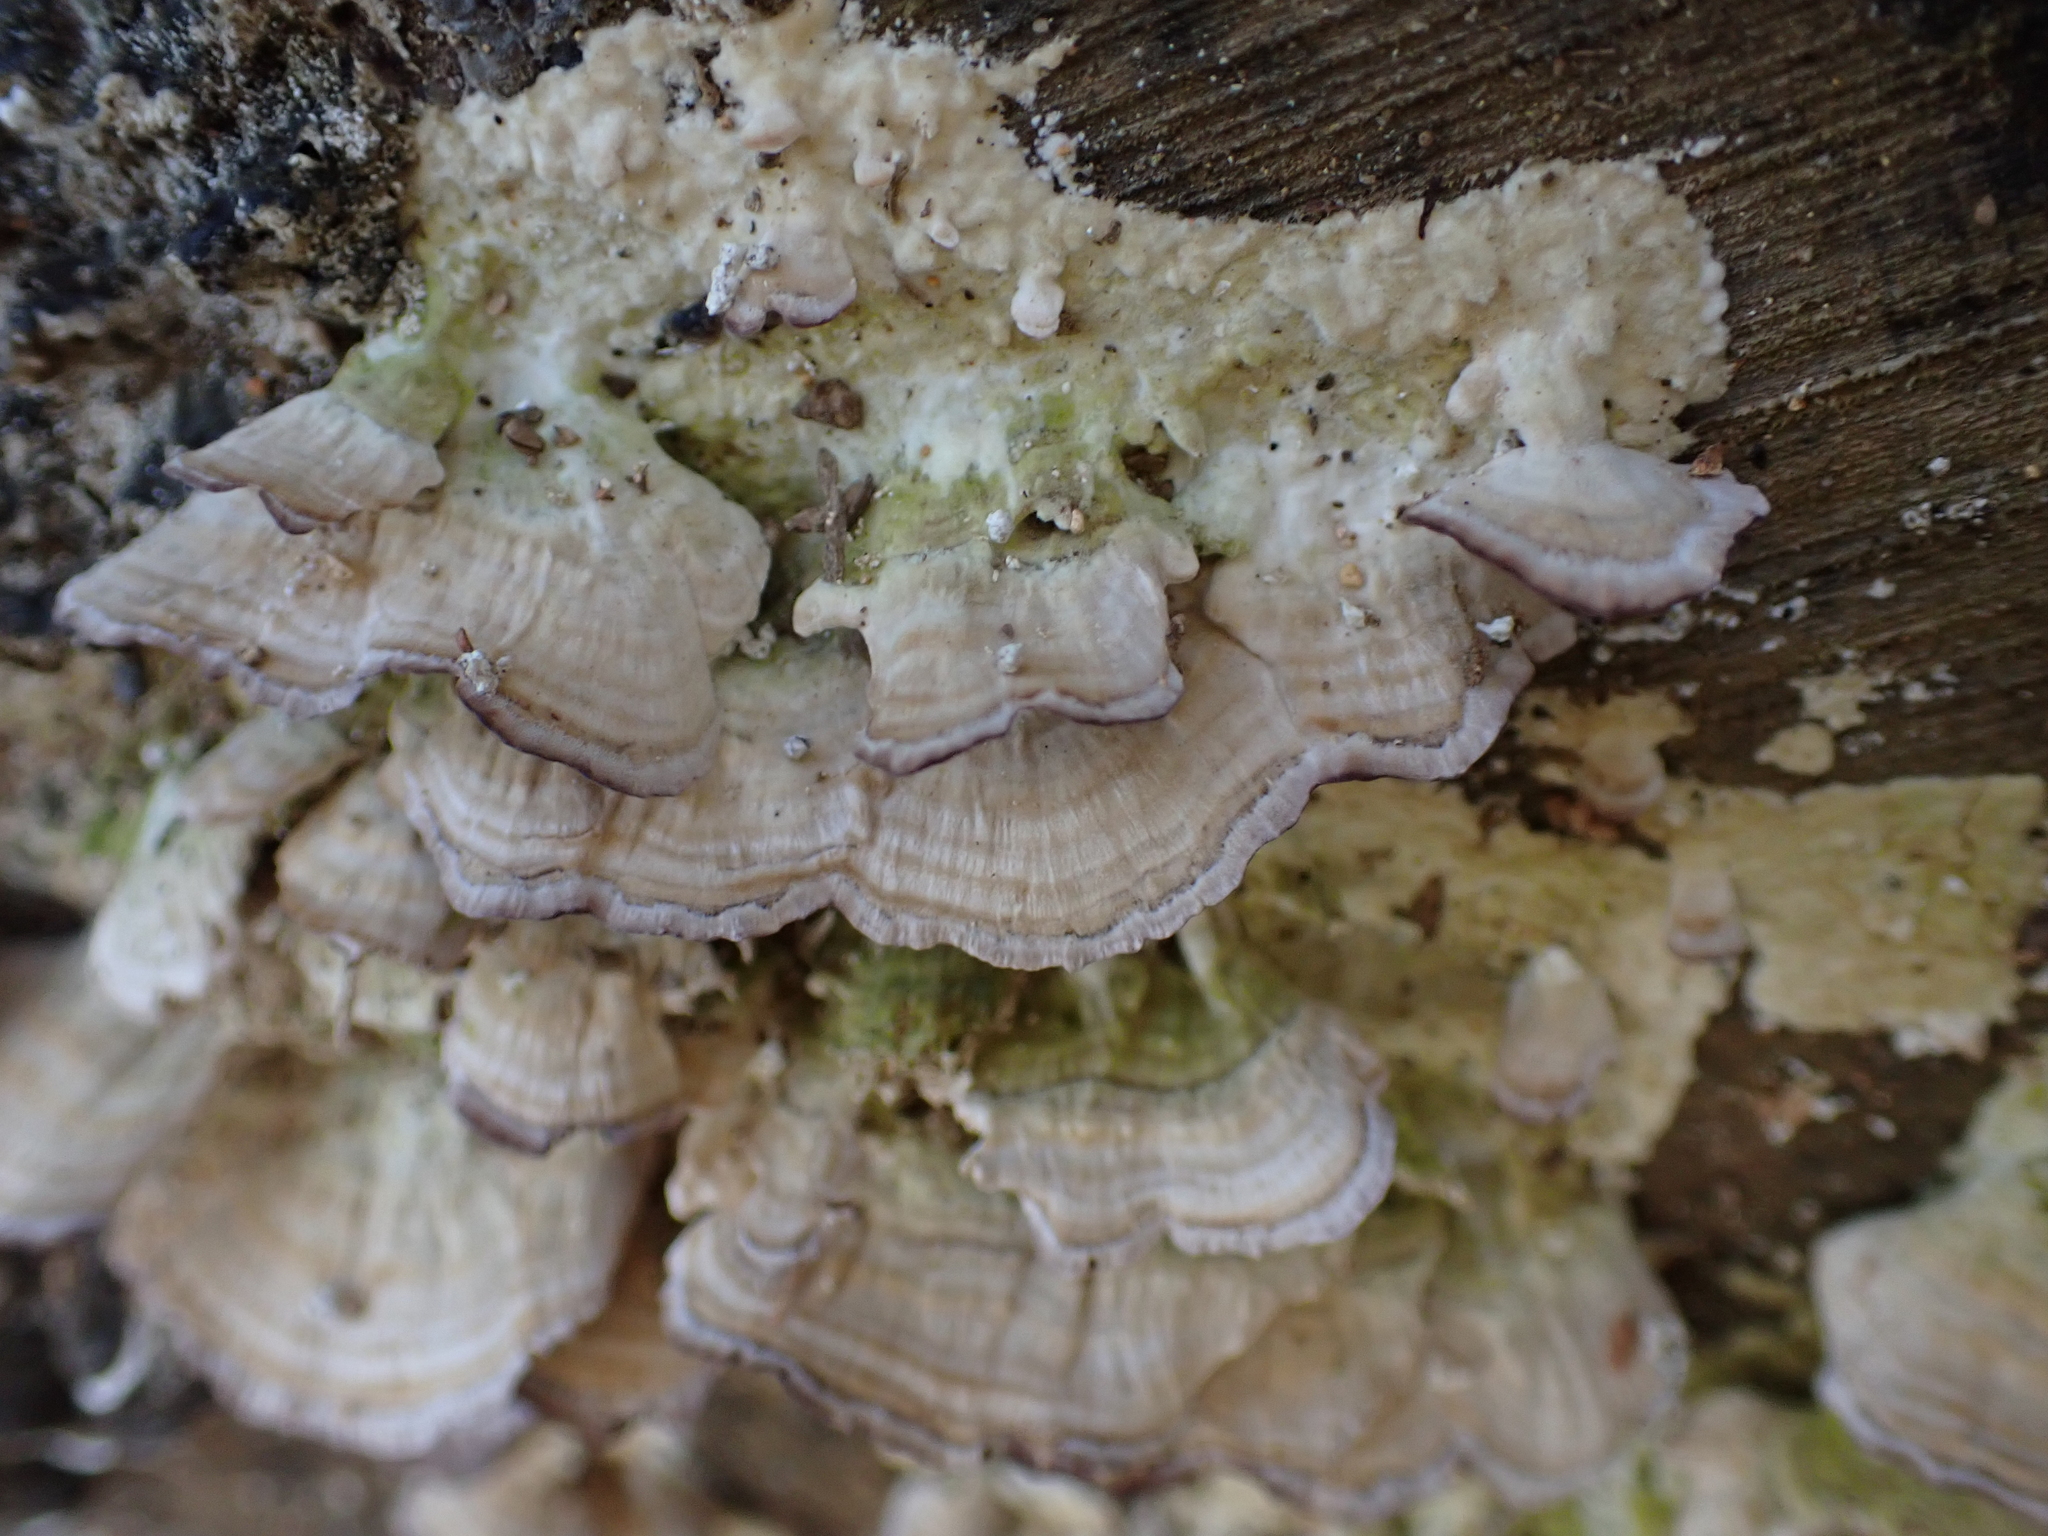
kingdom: Fungi
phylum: Basidiomycota
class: Agaricomycetes
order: Hymenochaetales
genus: Trichaptum
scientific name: Trichaptum biforme
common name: Violet-toothed polypore
